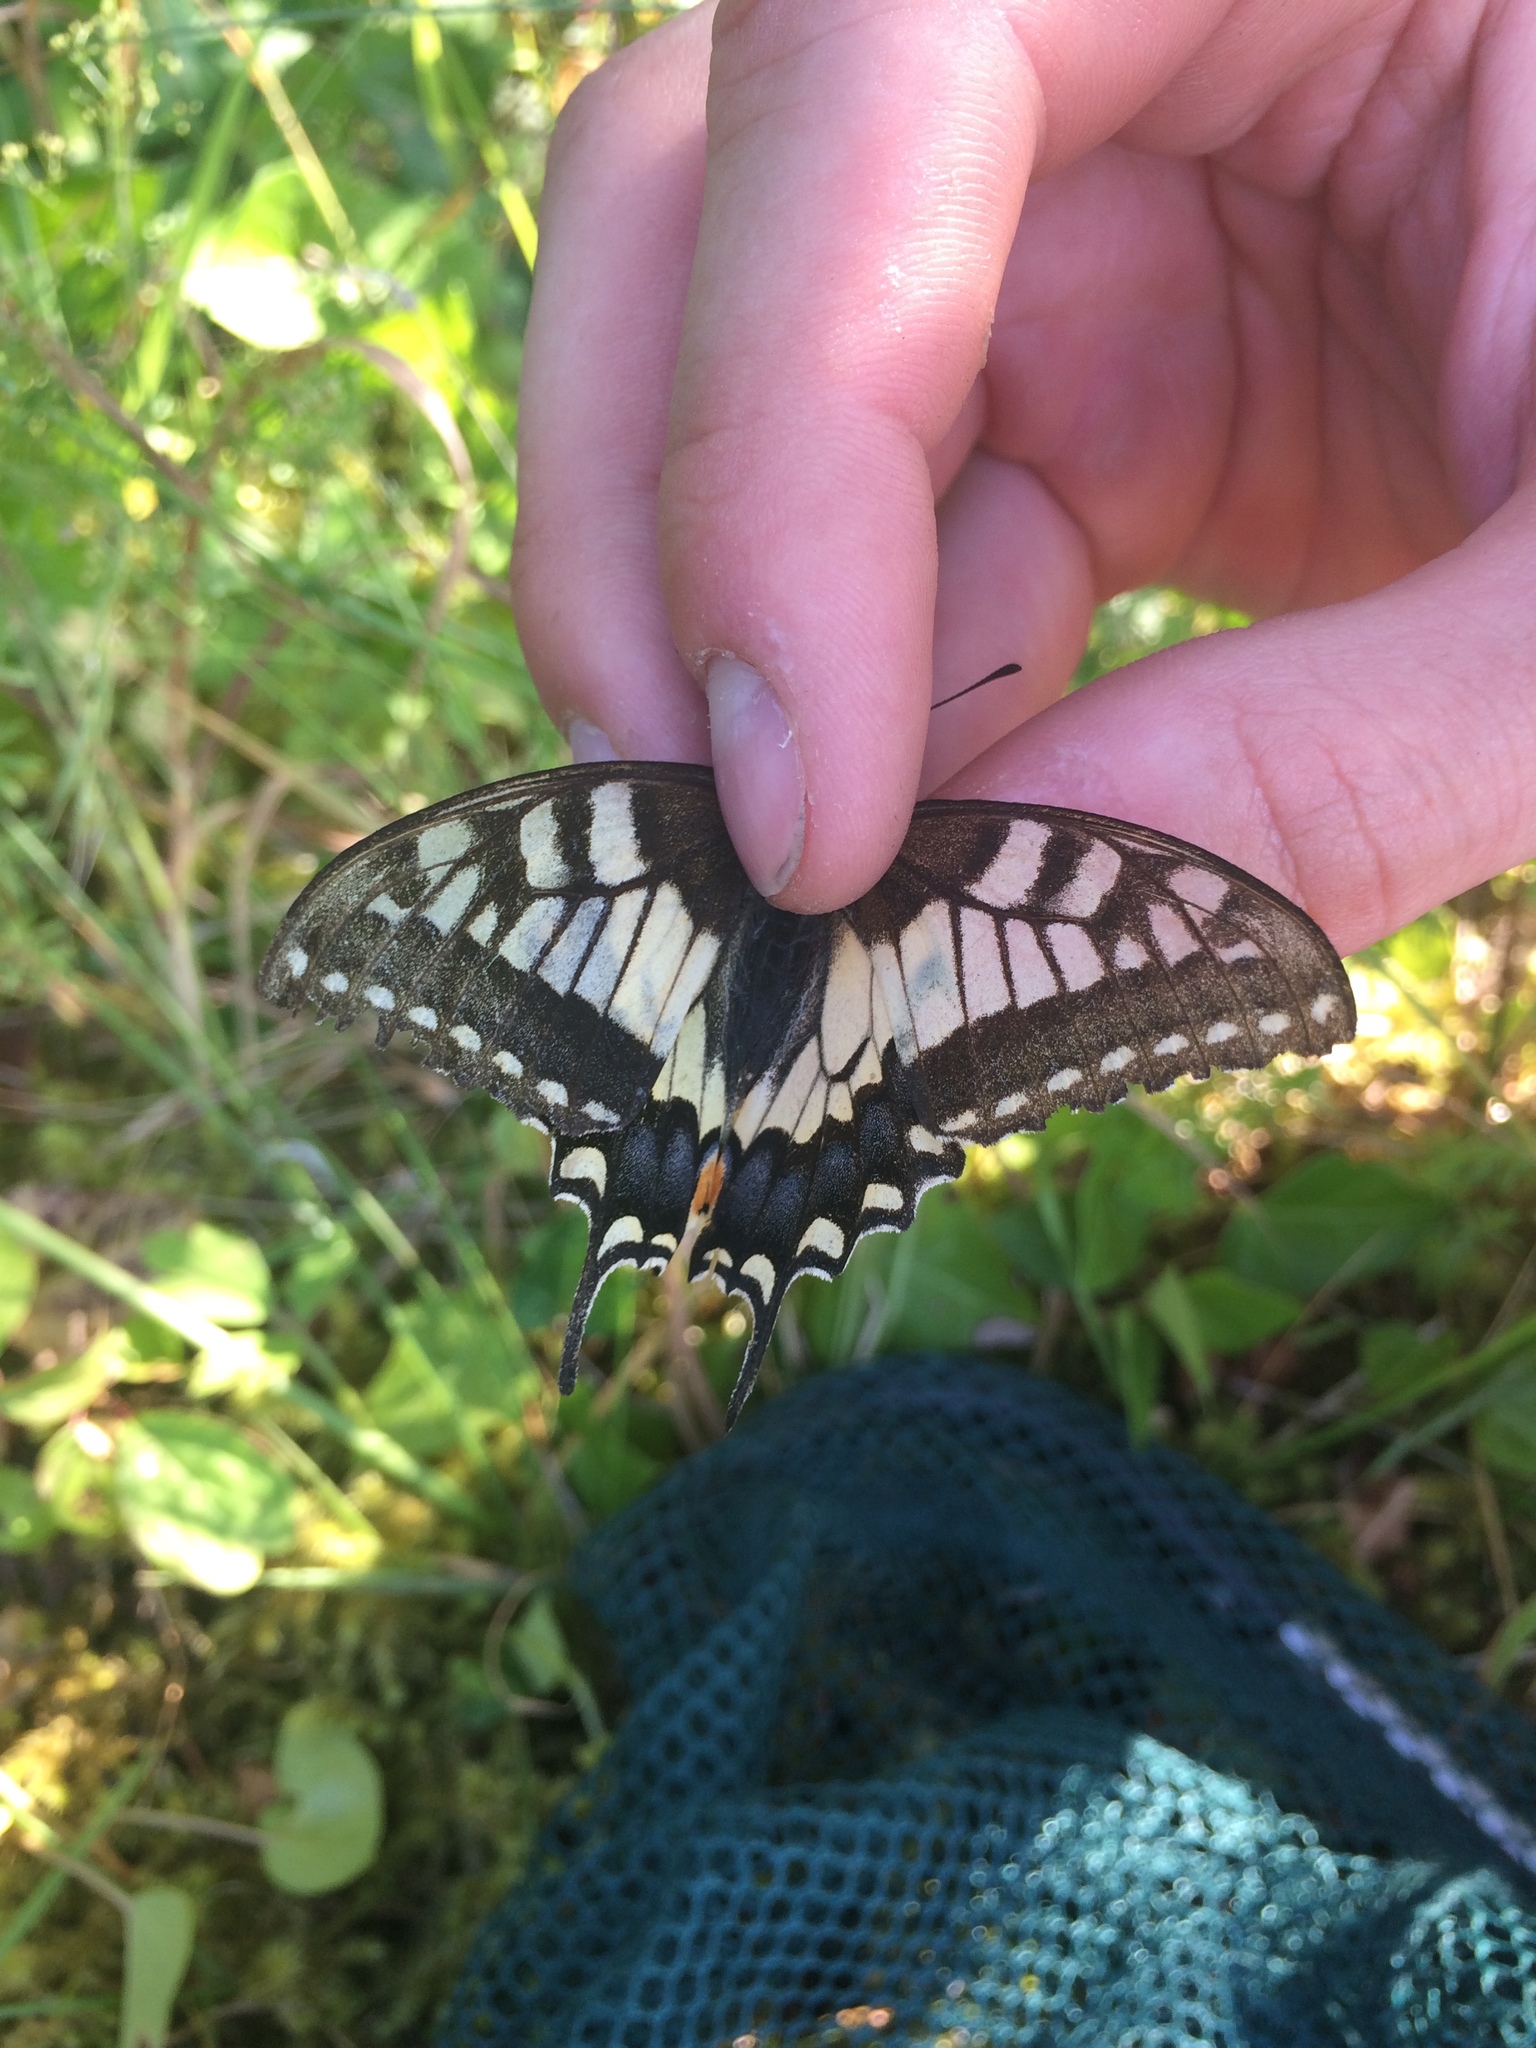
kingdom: Animalia
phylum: Arthropoda
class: Insecta
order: Lepidoptera
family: Papilionidae
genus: Papilio
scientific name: Papilio machaon
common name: Swallowtail
